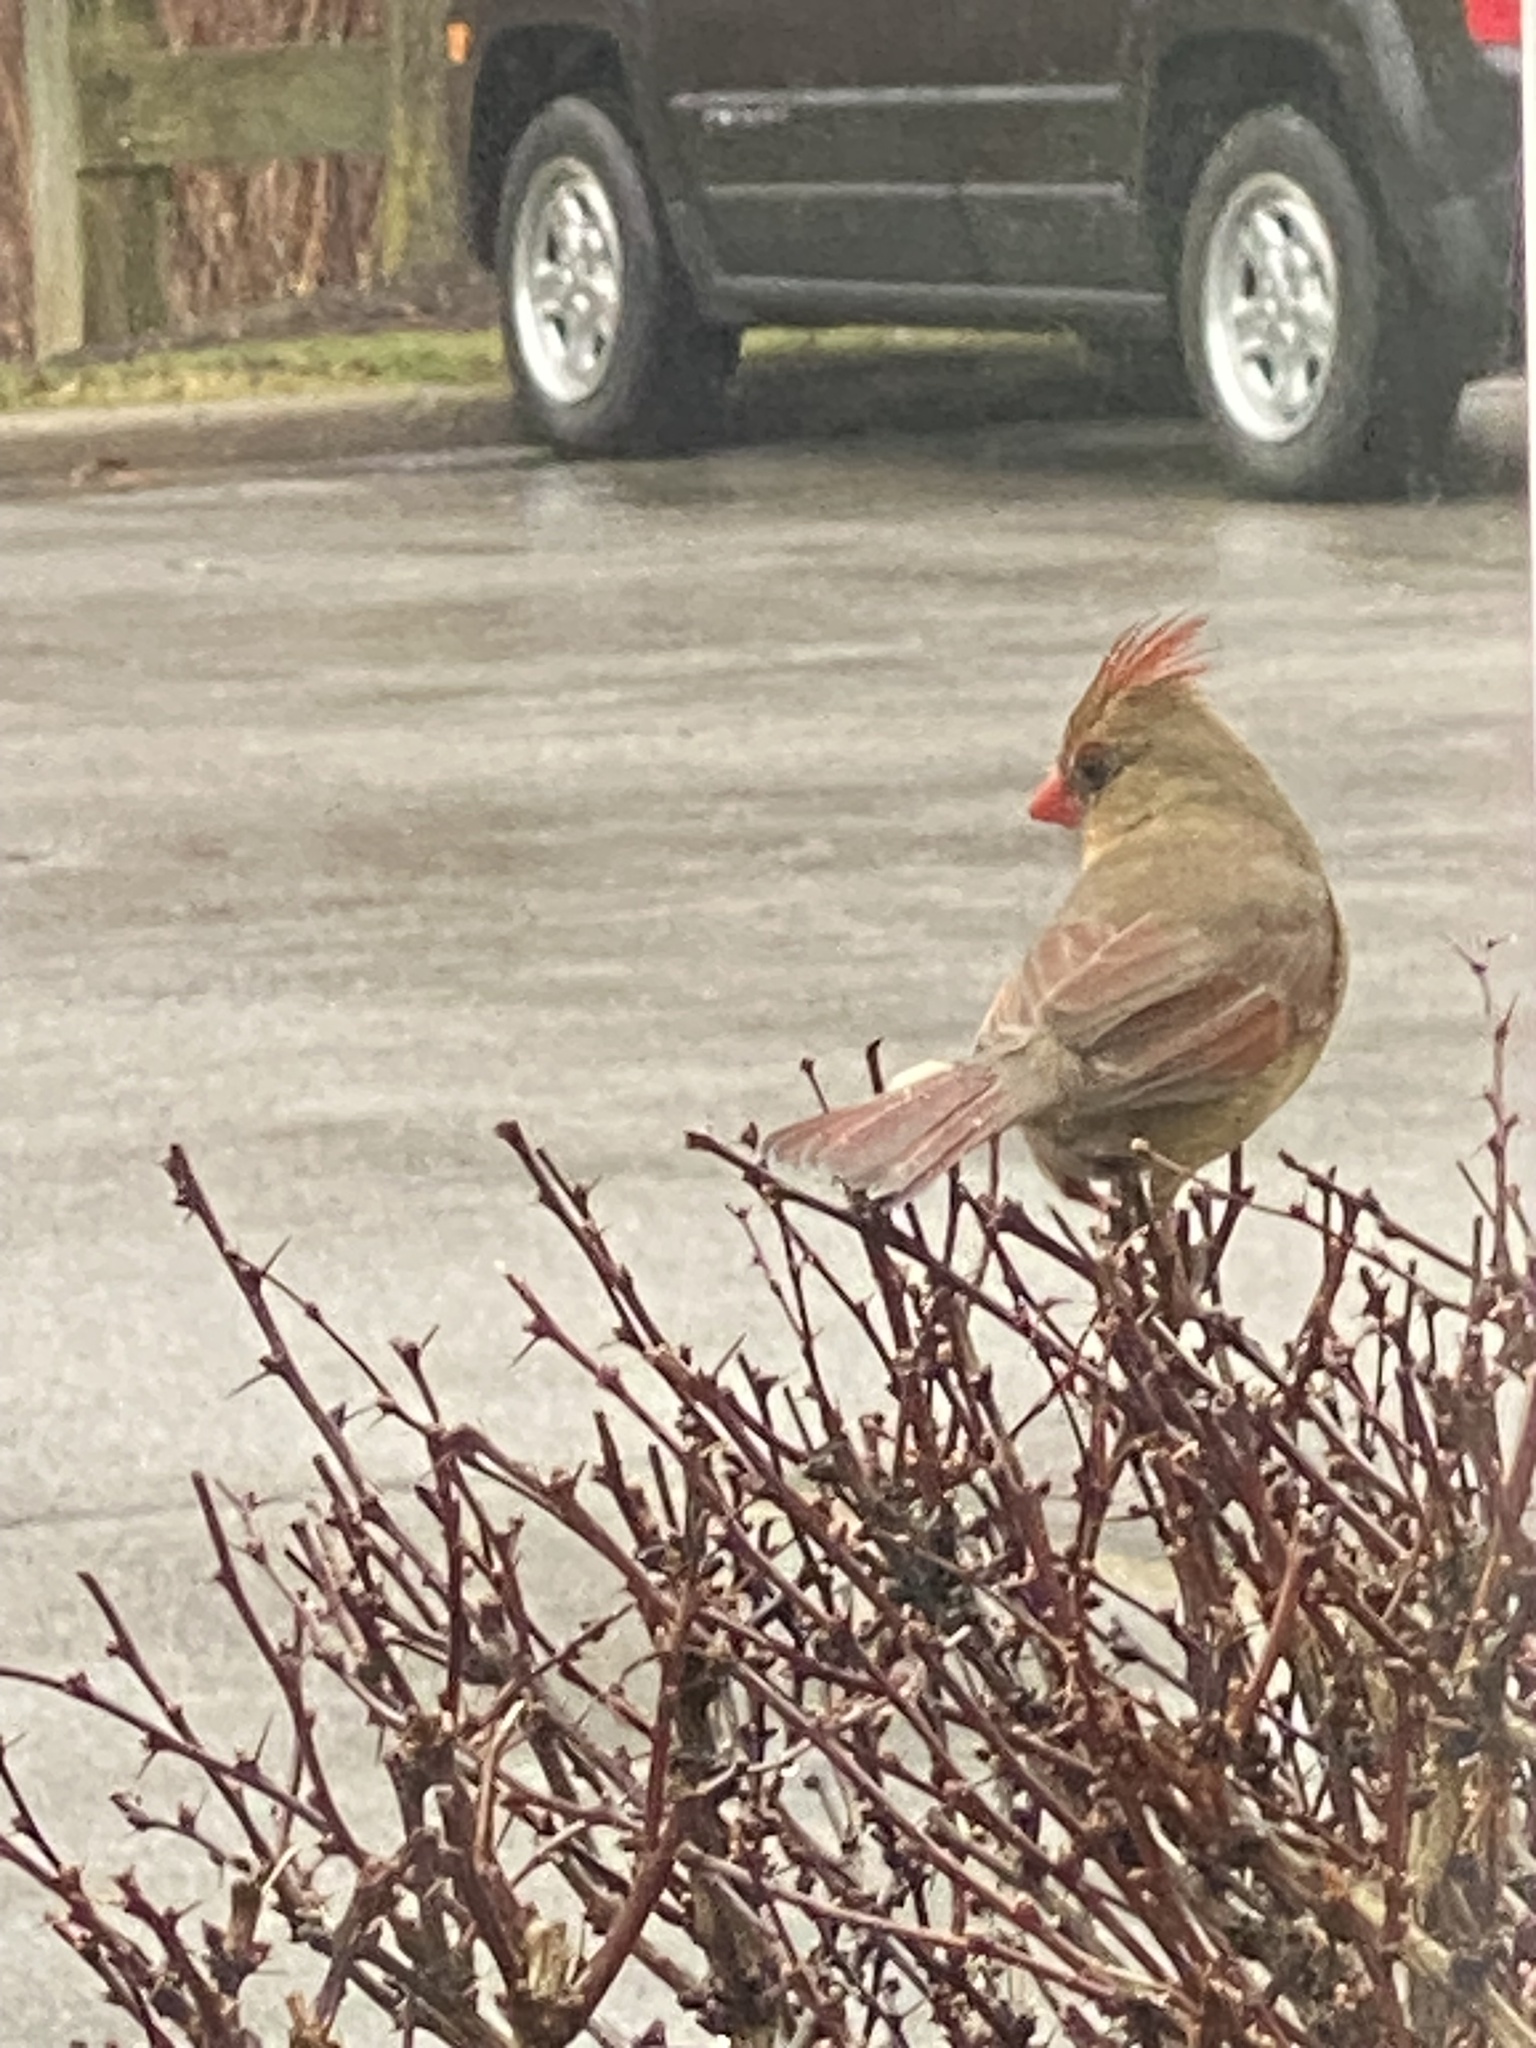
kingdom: Animalia
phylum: Chordata
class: Aves
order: Passeriformes
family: Cardinalidae
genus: Cardinalis
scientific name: Cardinalis cardinalis
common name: Northern cardinal
